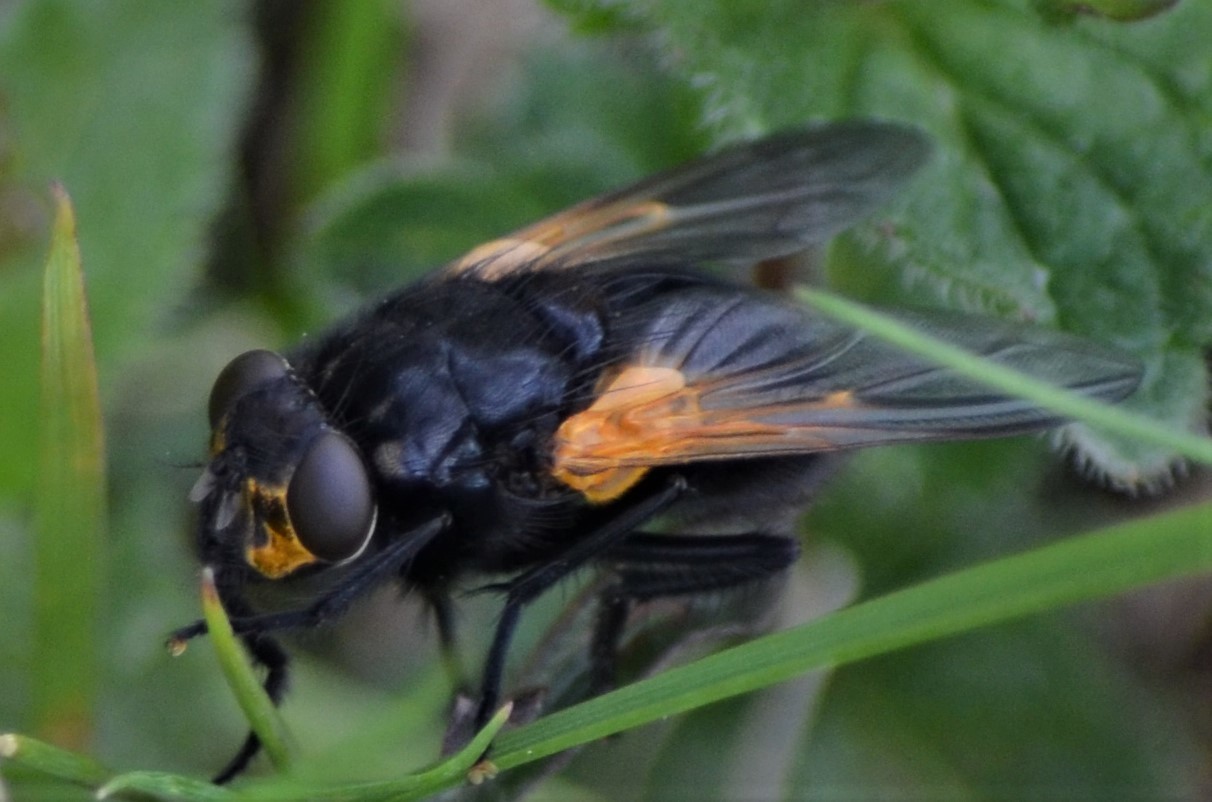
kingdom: Animalia
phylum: Arthropoda
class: Insecta
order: Diptera
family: Muscidae
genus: Mesembrina
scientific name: Mesembrina meridiana
